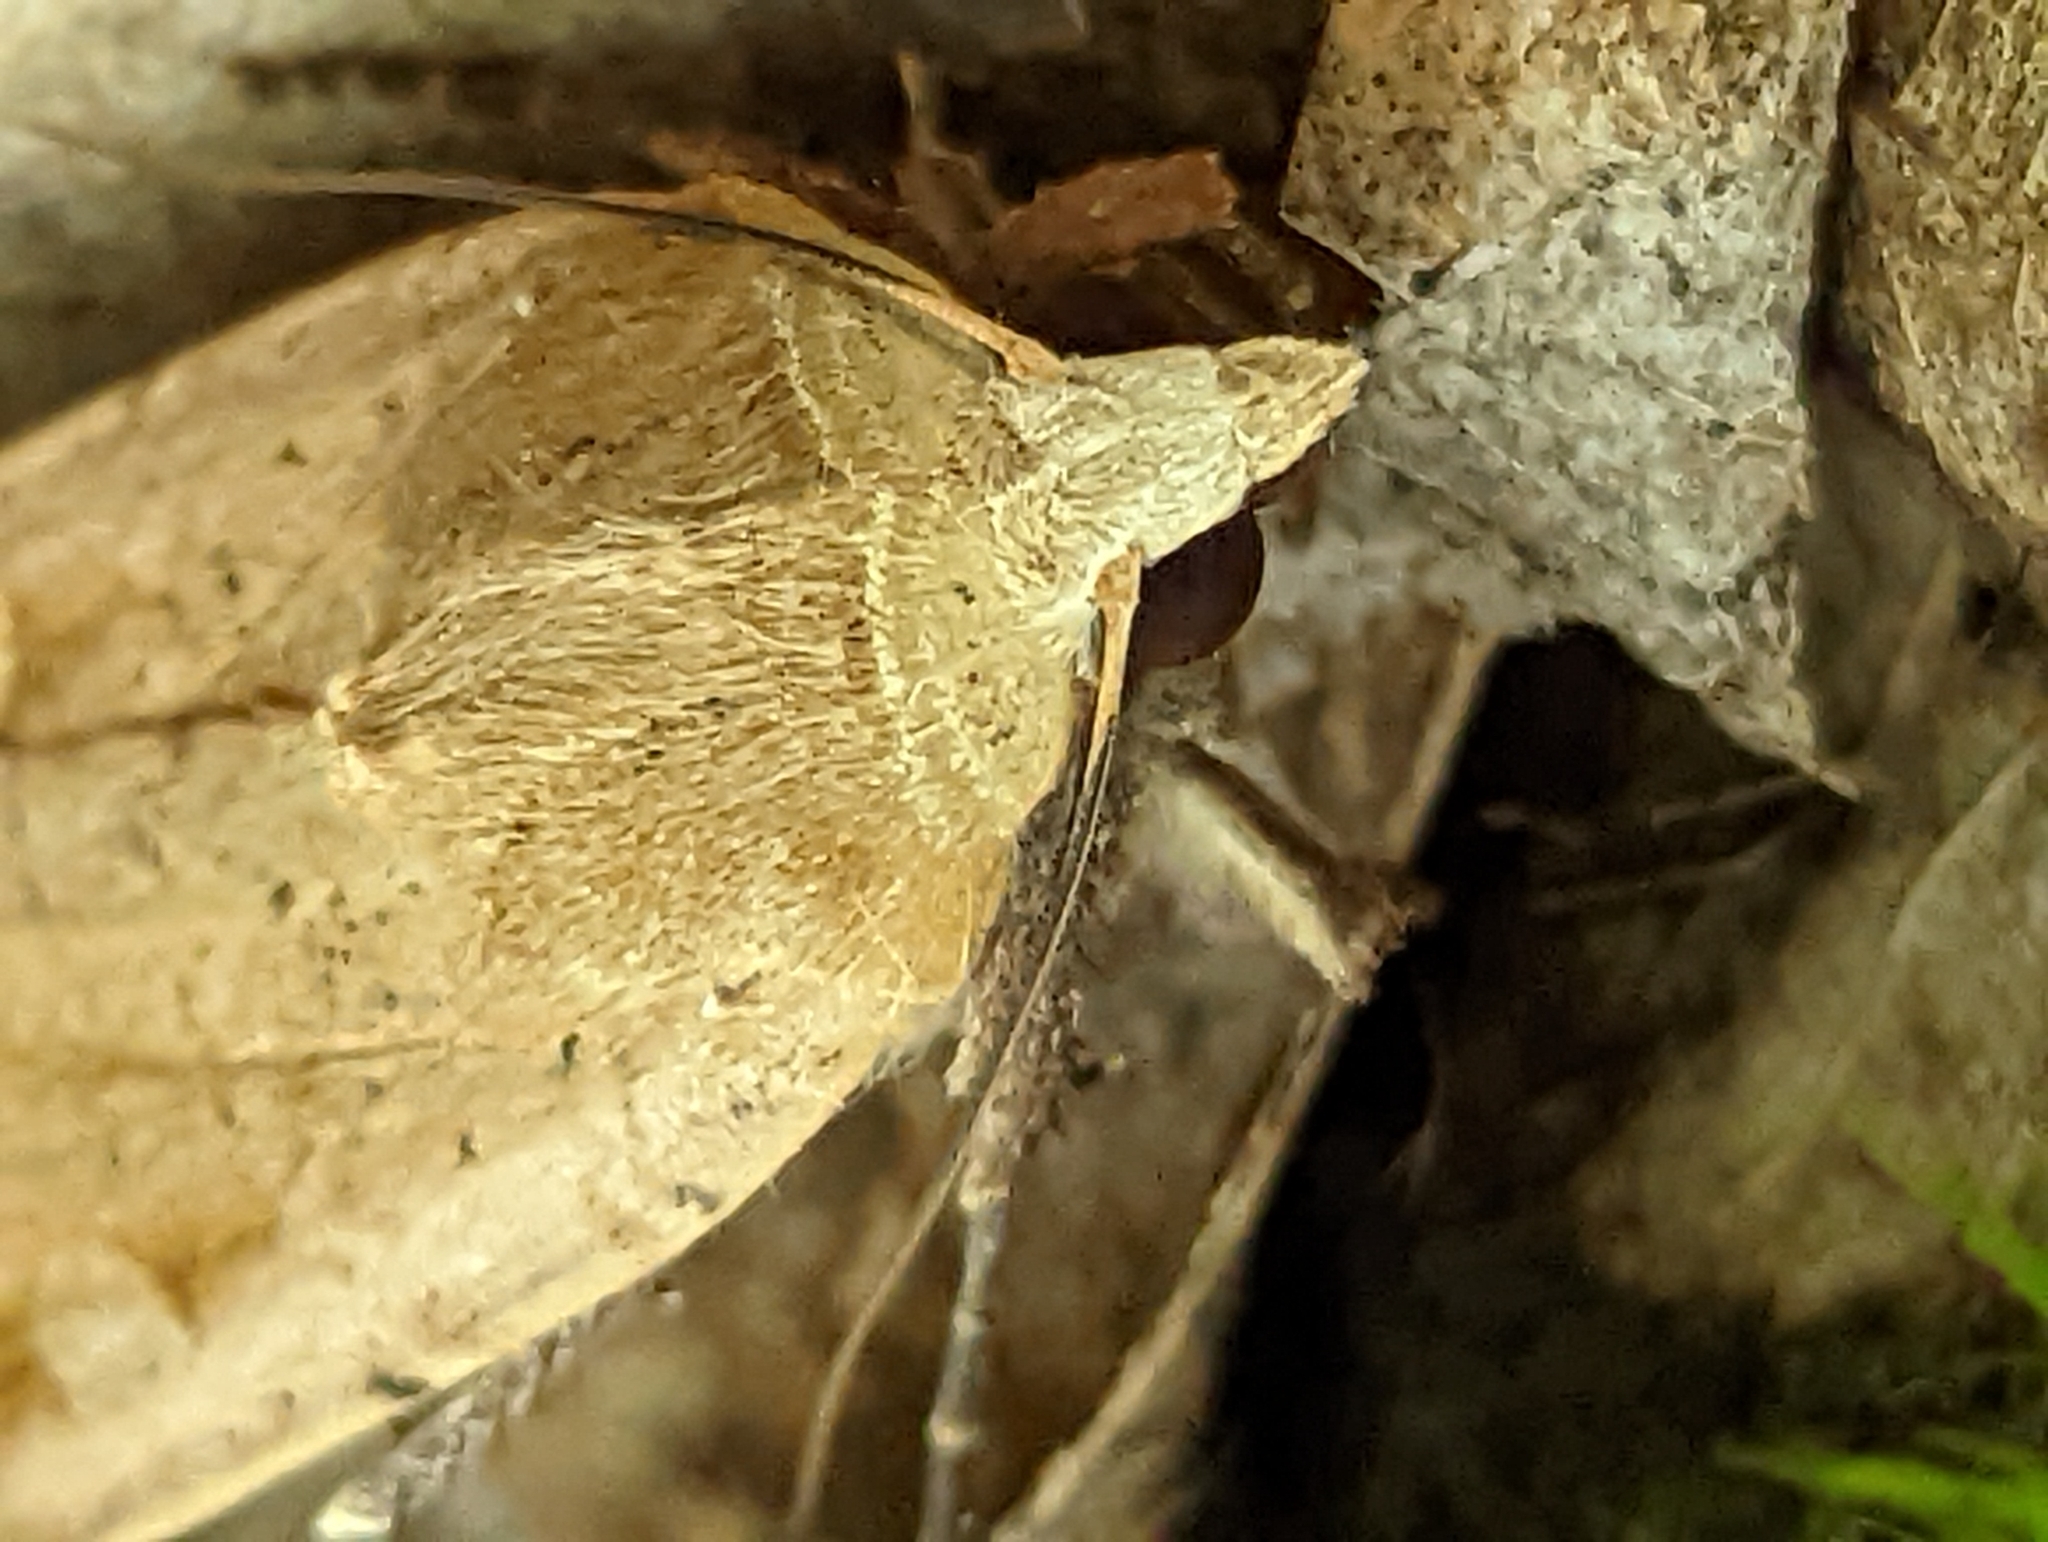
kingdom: Animalia
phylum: Arthropoda
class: Insecta
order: Lepidoptera
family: Noctuidae
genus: Noctua
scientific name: Noctua pronuba
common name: Large yellow underwing
